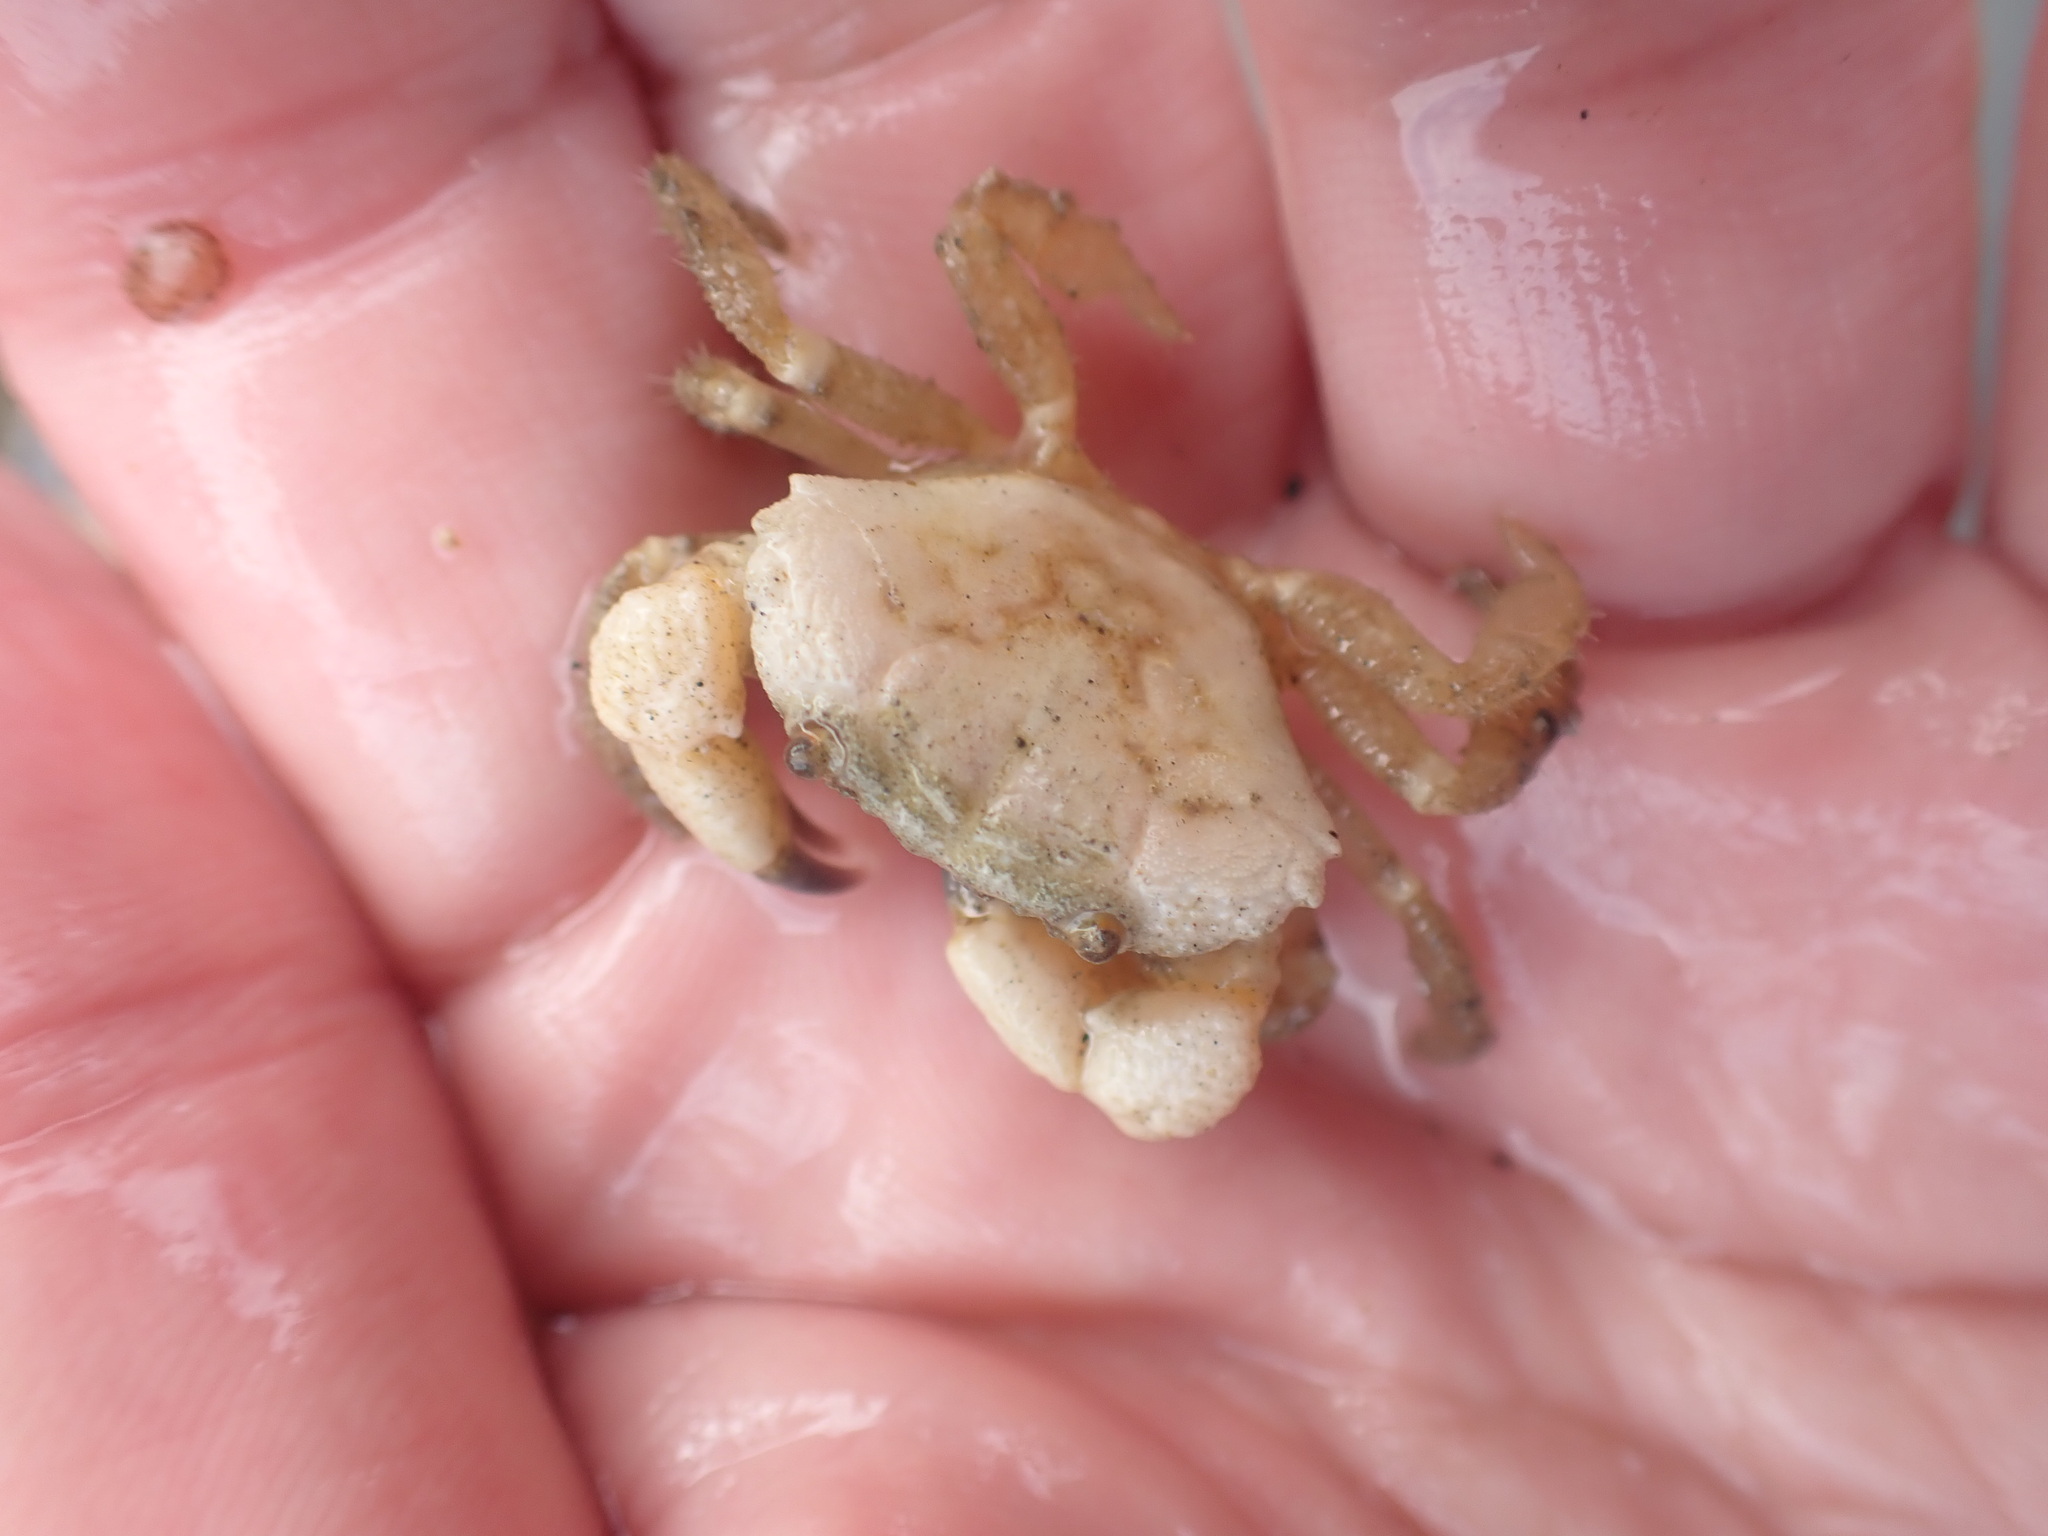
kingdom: Animalia
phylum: Arthropoda
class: Malacostraca
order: Decapoda
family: Oziidae
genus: Ozius
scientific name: Ozius deplanatus
